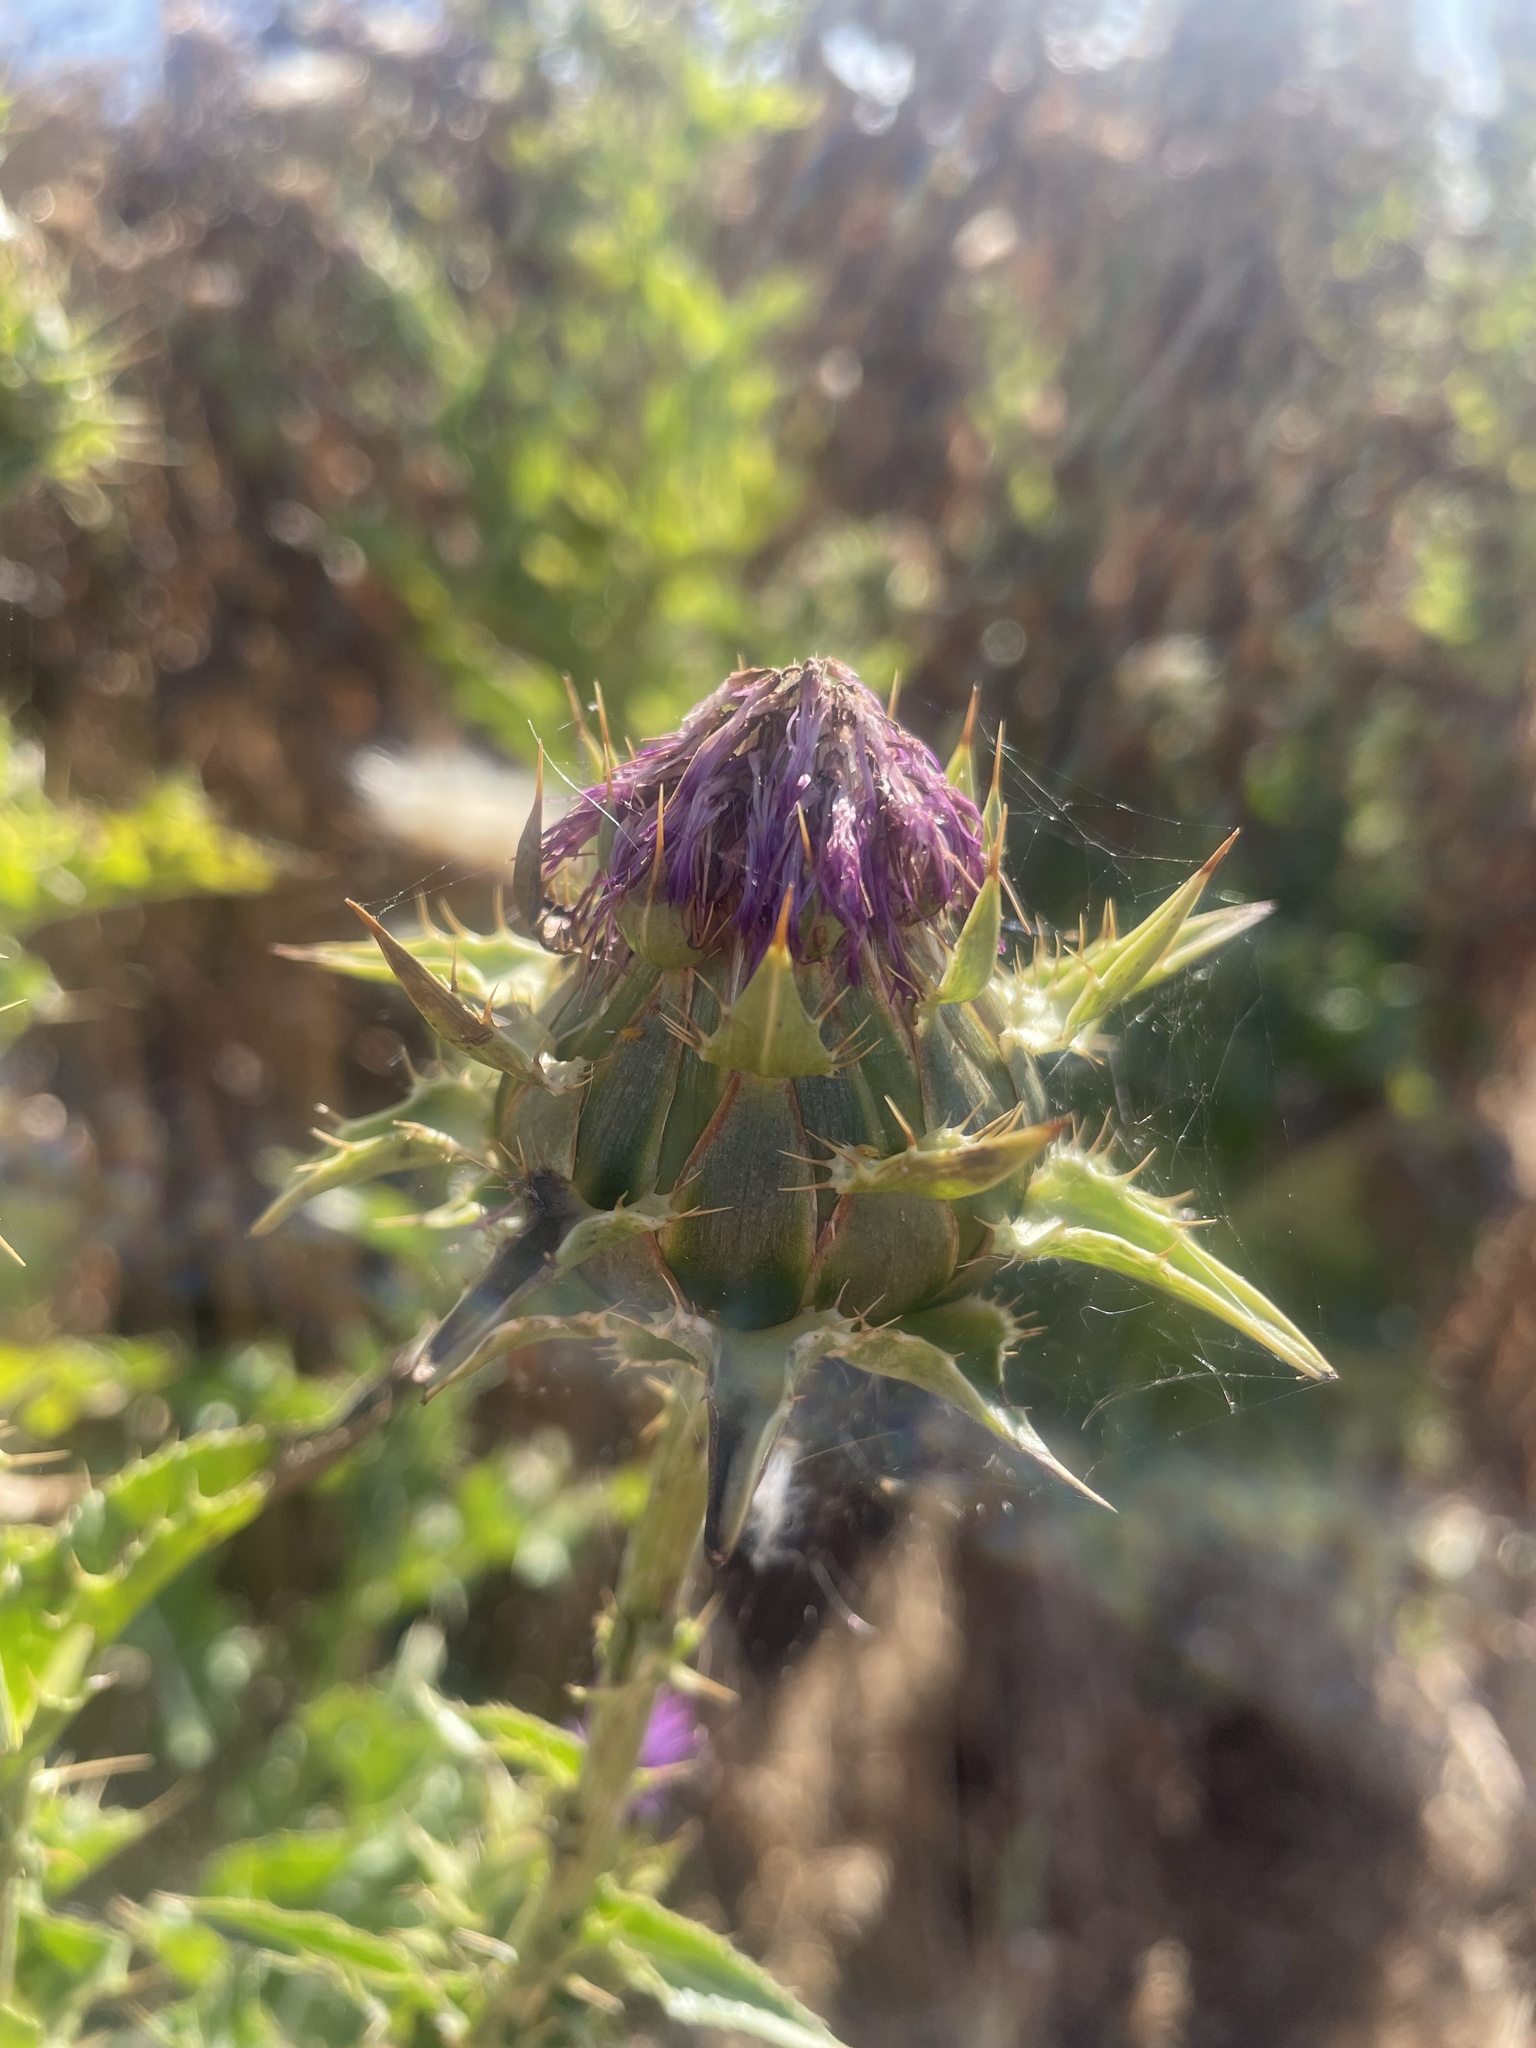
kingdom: Plantae
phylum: Tracheophyta
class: Magnoliopsida
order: Asterales
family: Asteraceae
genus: Silybum
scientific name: Silybum marianum
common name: Milk thistle
